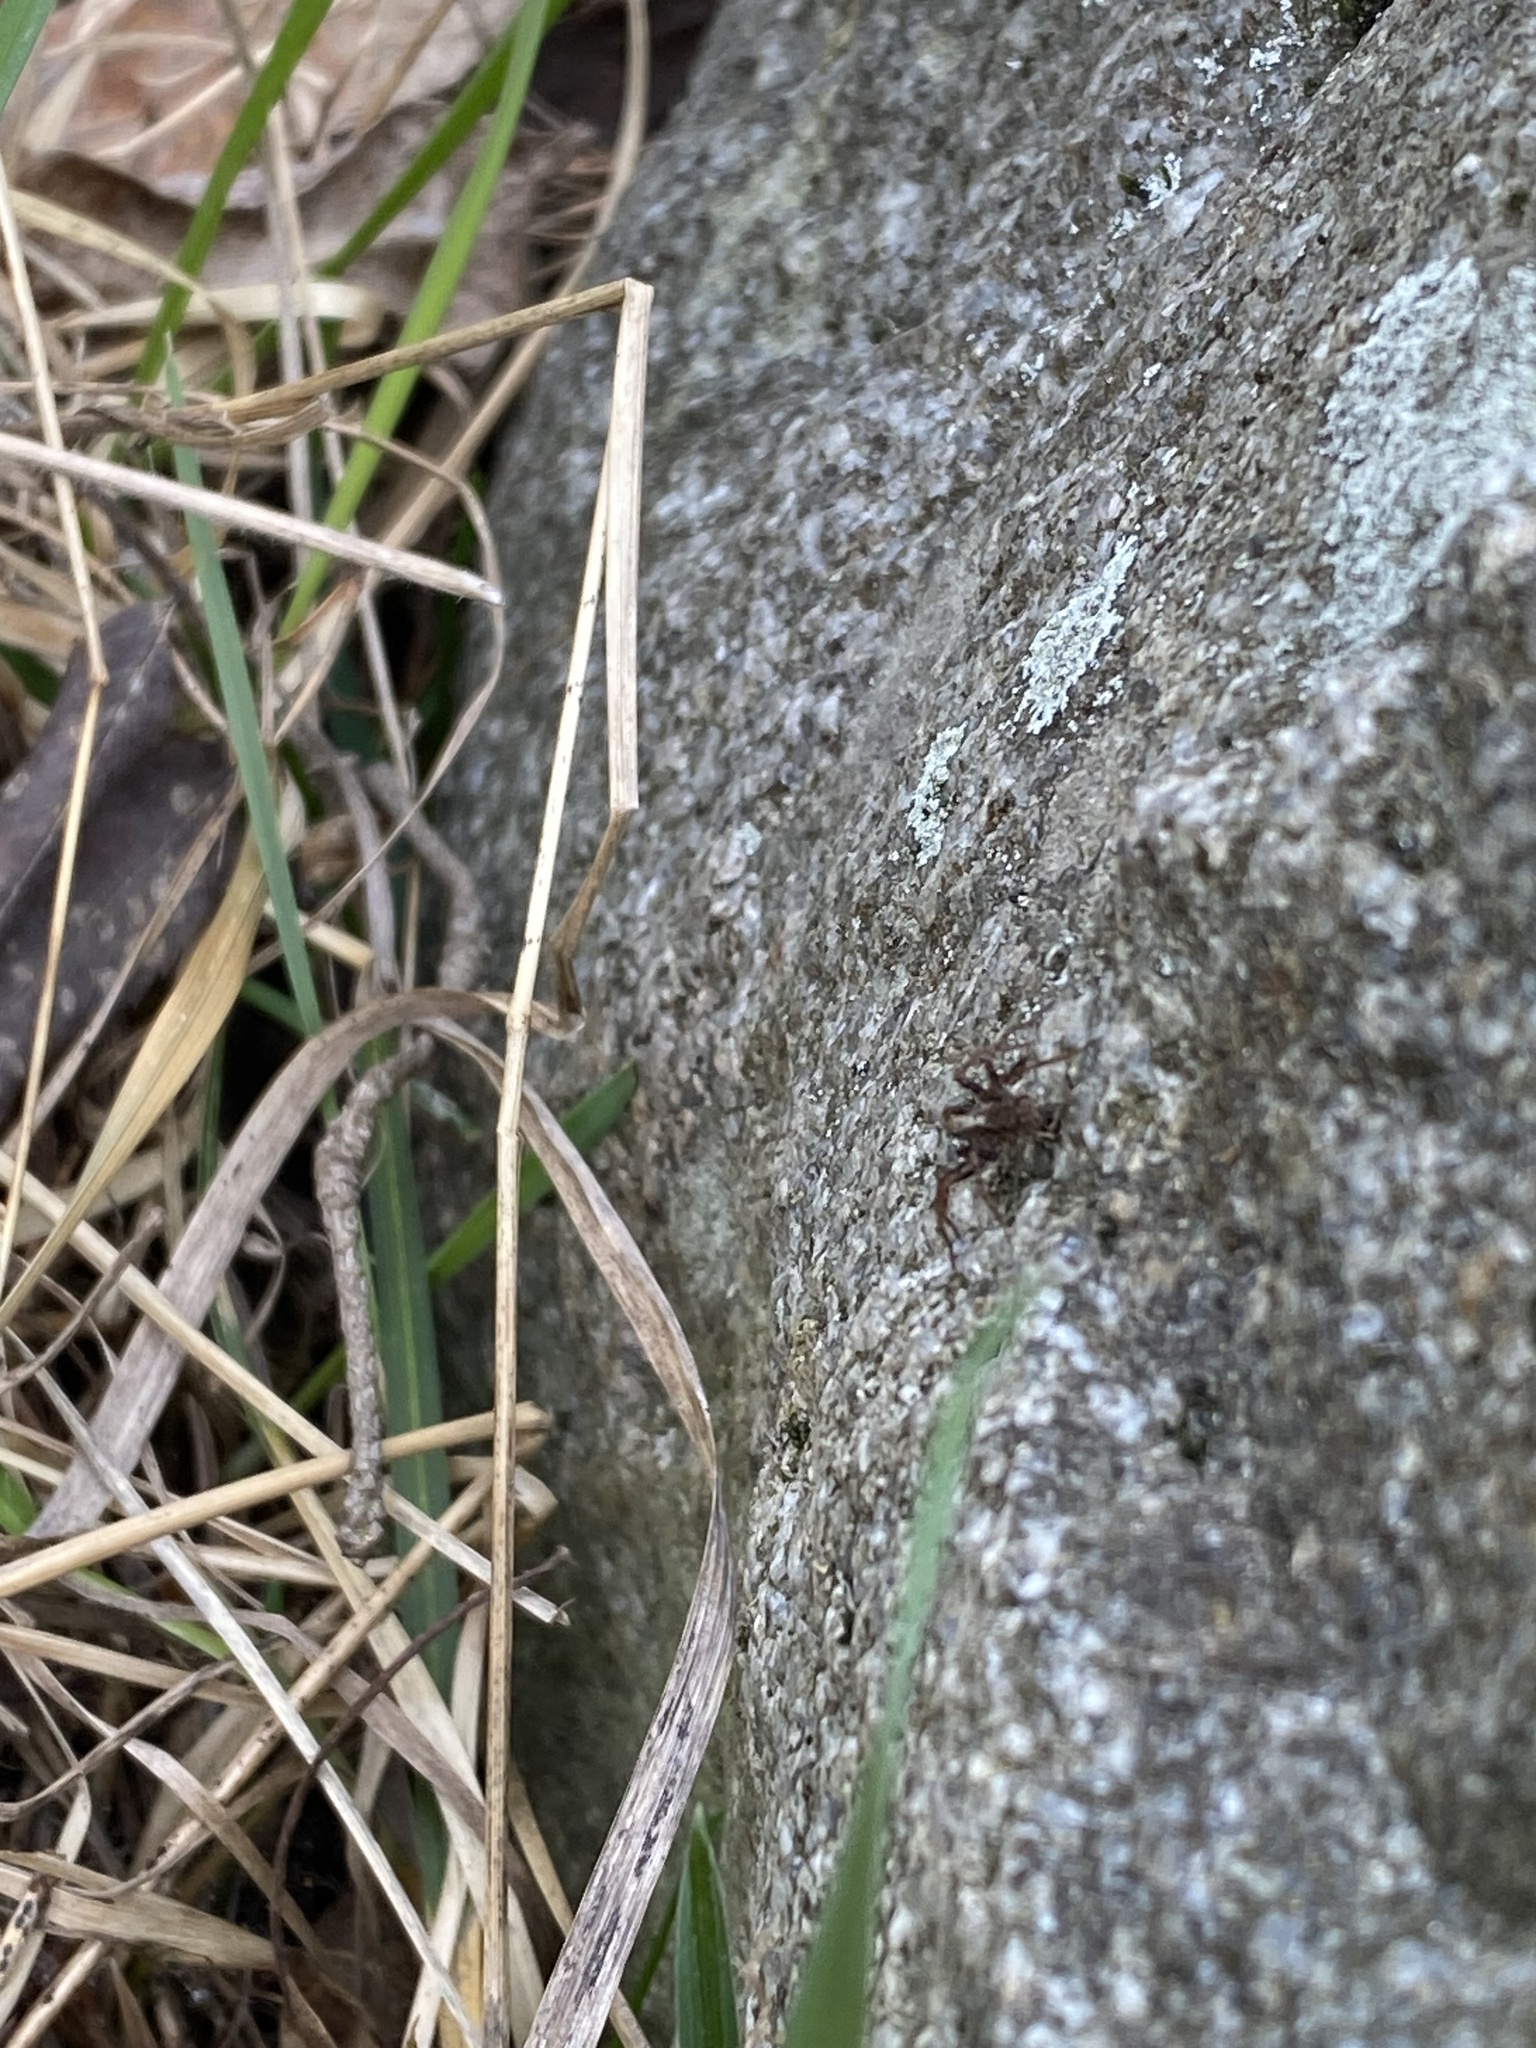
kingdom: Animalia
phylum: Arthropoda
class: Arachnida
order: Araneae
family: Lycosidae
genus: Pardosa
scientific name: Pardosa
